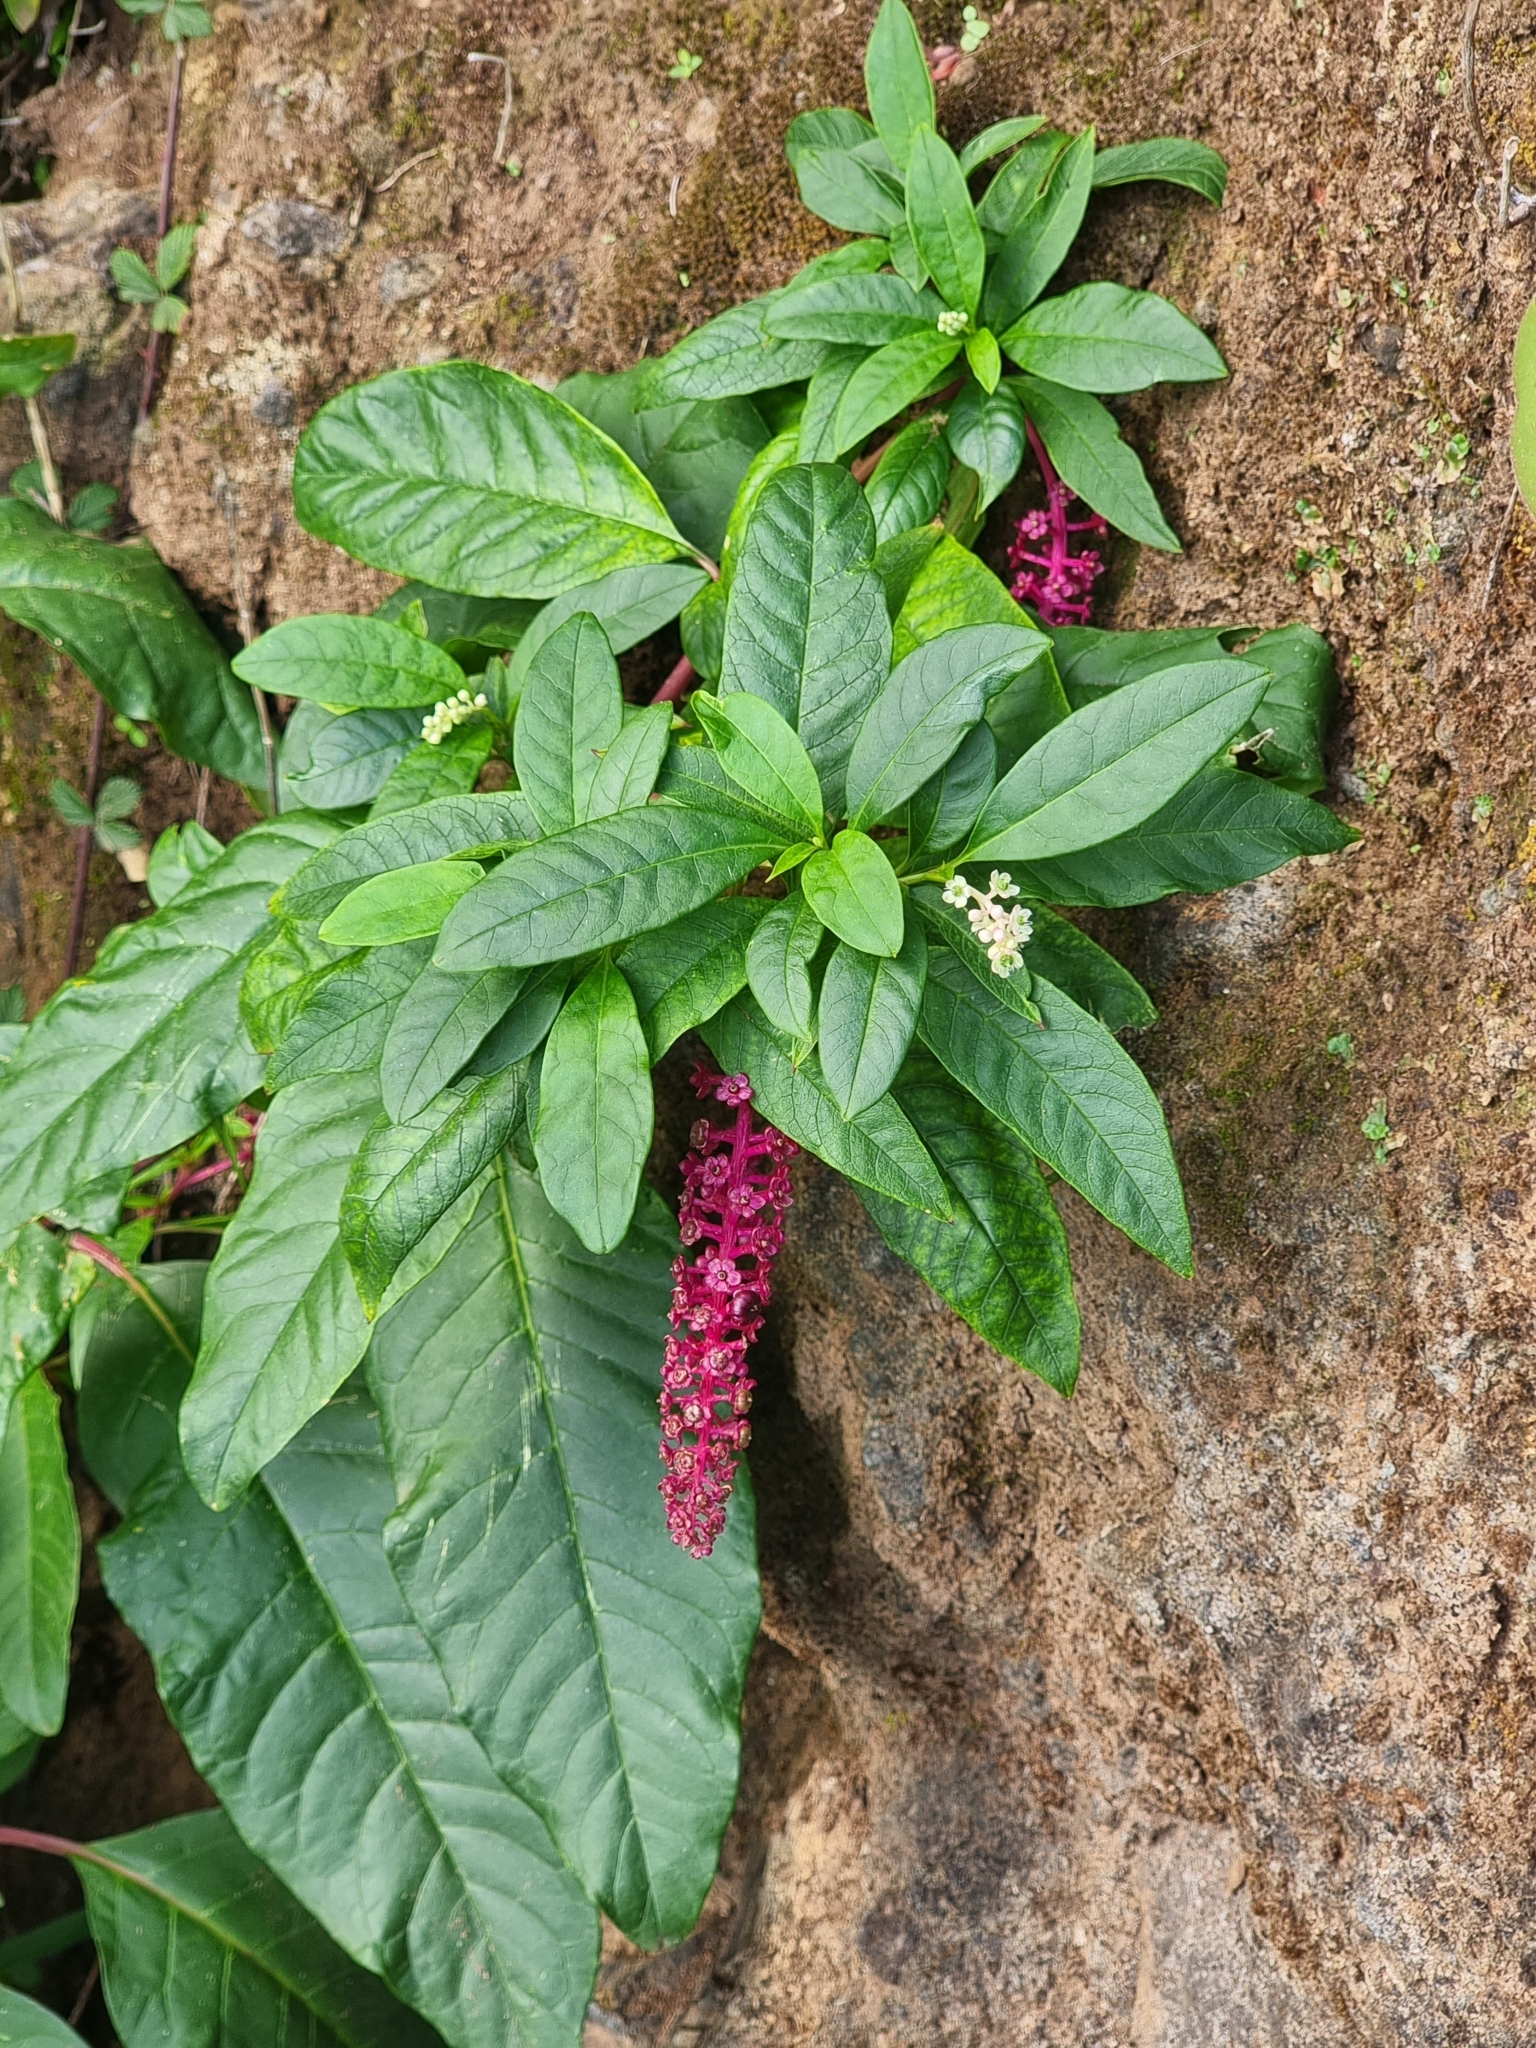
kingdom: Plantae
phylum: Tracheophyta
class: Magnoliopsida
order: Caryophyllales
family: Phytolaccaceae
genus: Phytolacca
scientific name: Phytolacca americana
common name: American pokeweed
